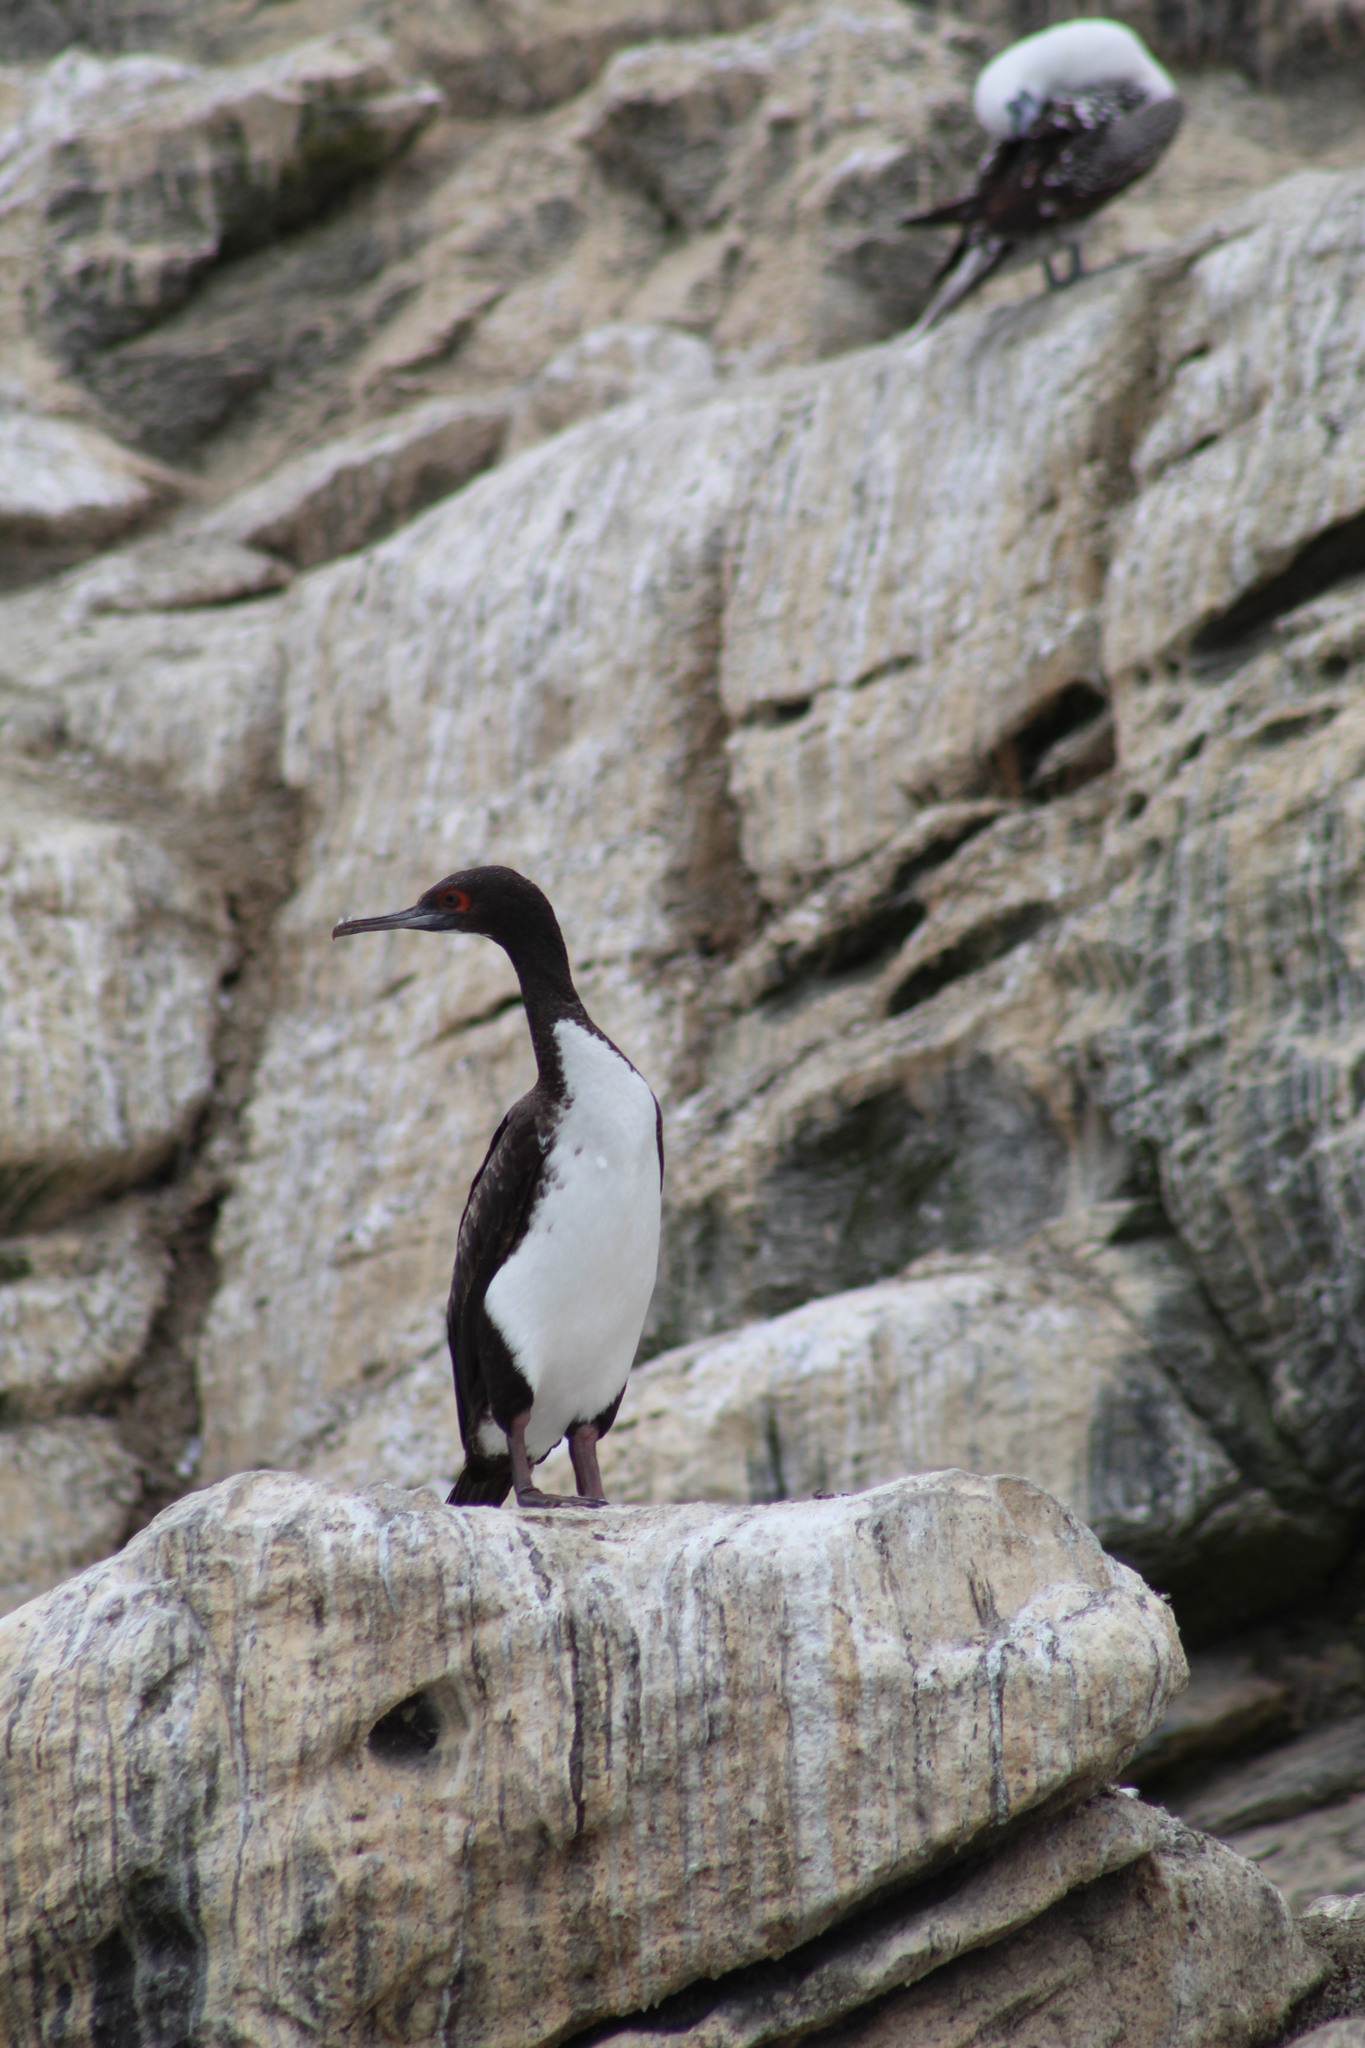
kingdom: Animalia
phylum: Chordata
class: Aves
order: Suliformes
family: Phalacrocoracidae
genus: Leucocarbo
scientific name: Leucocarbo bougainvillii
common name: Guanay cormorant
